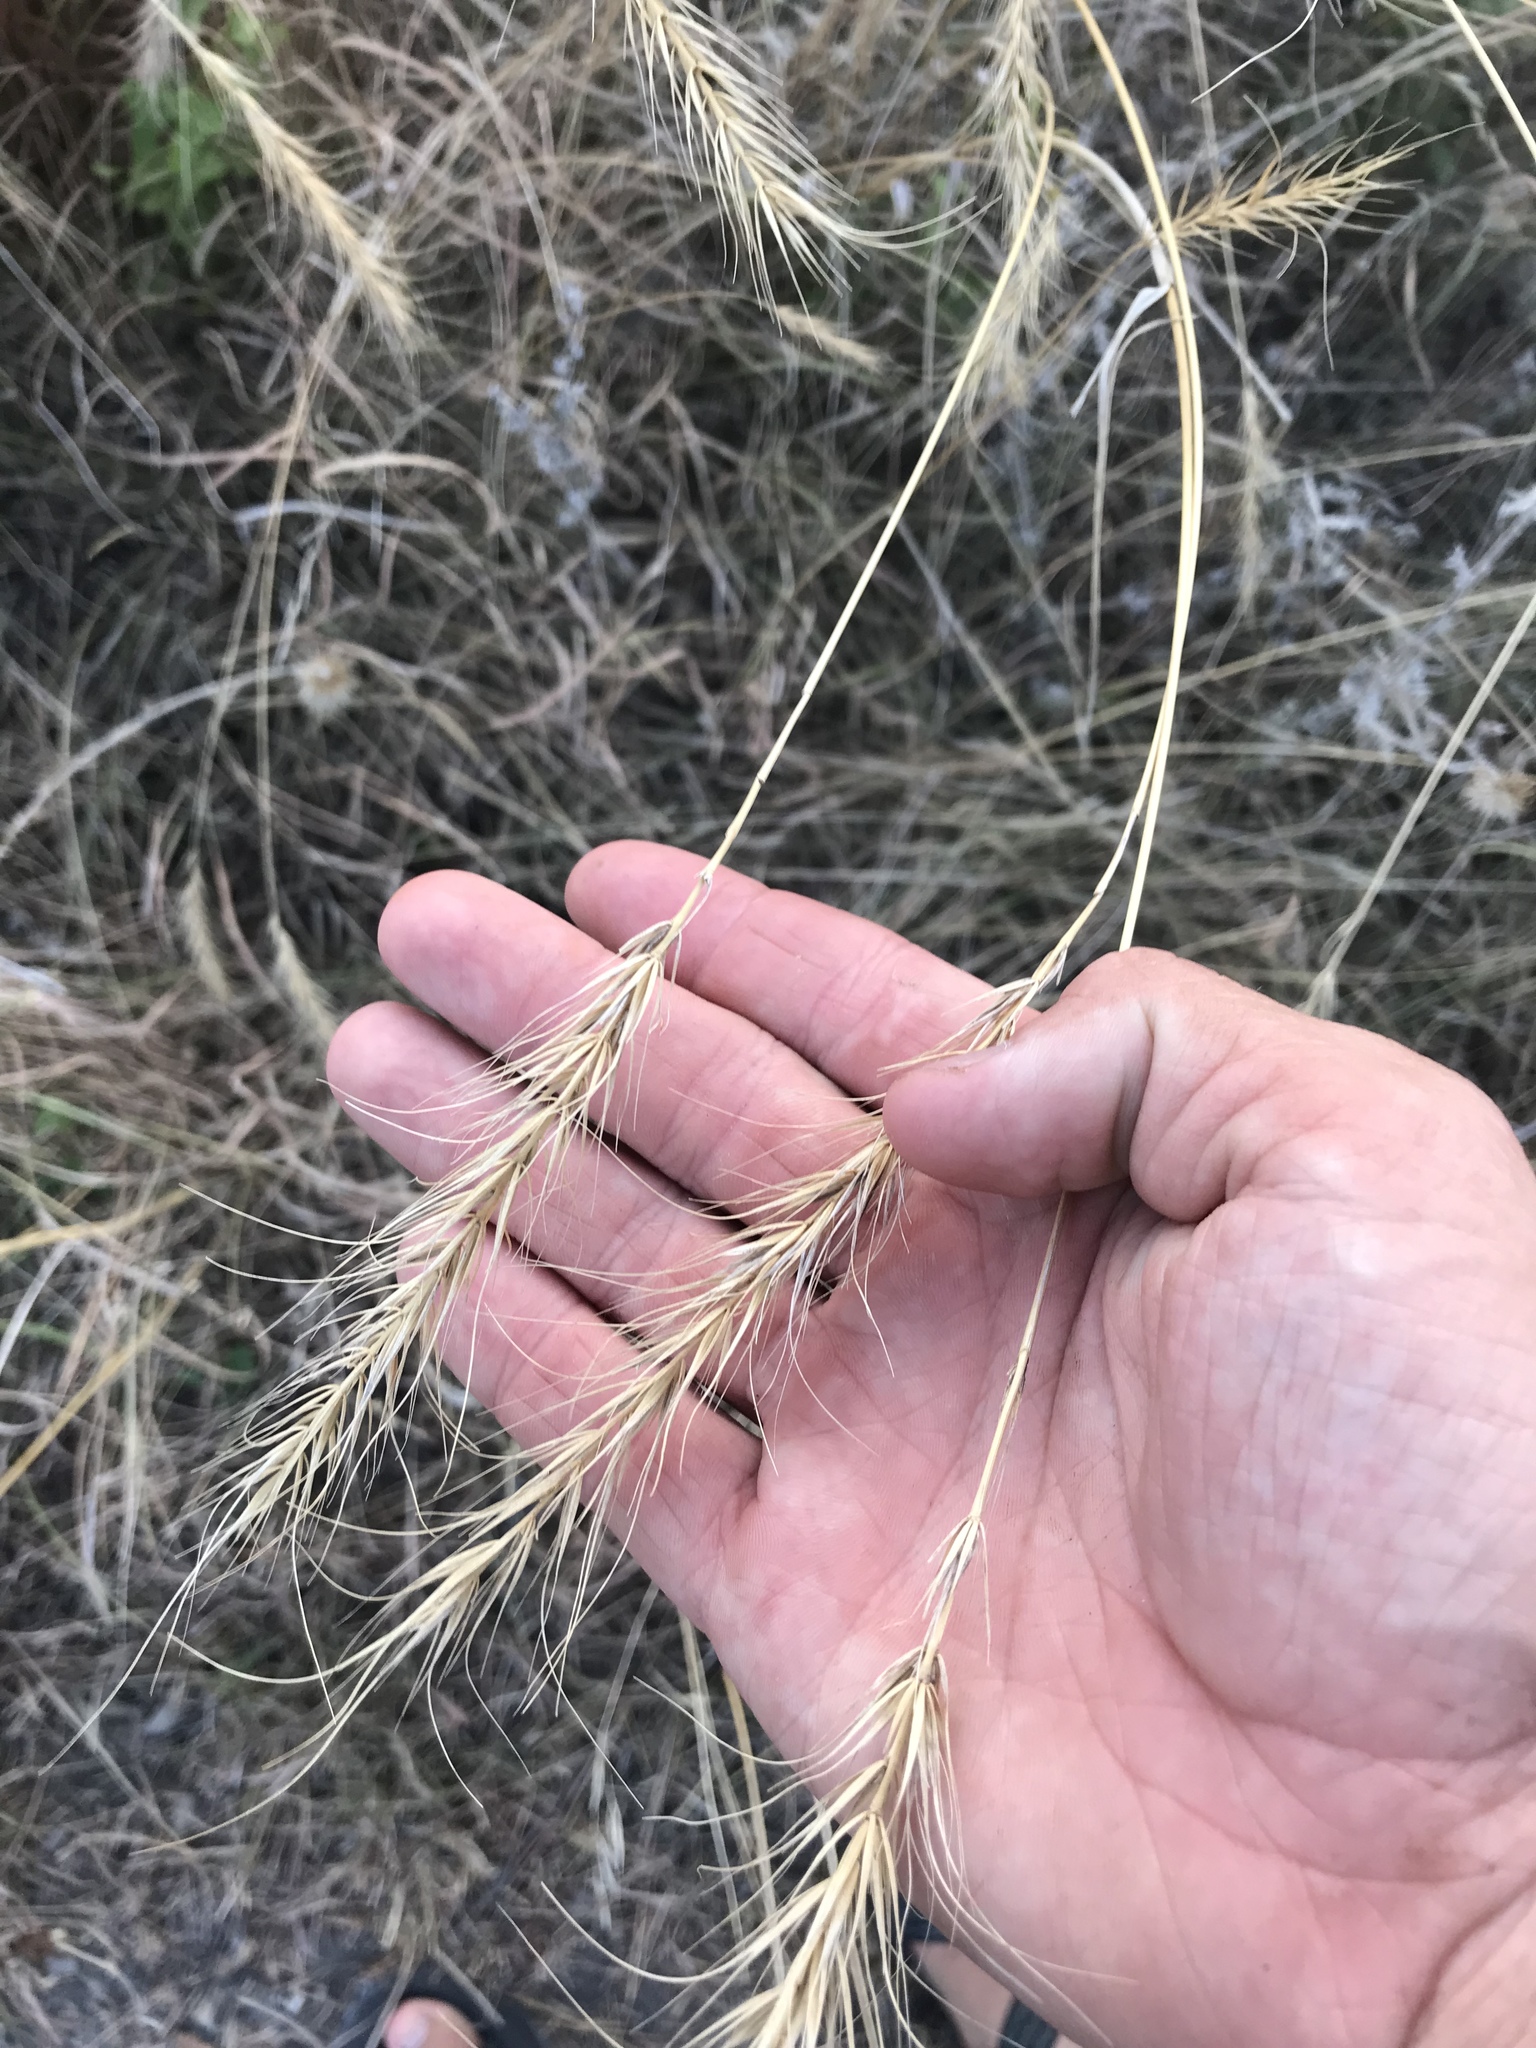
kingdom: Plantae
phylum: Tracheophyta
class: Liliopsida
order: Poales
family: Poaceae
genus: Elymus
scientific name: Elymus canadensis
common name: Canada wild rye
